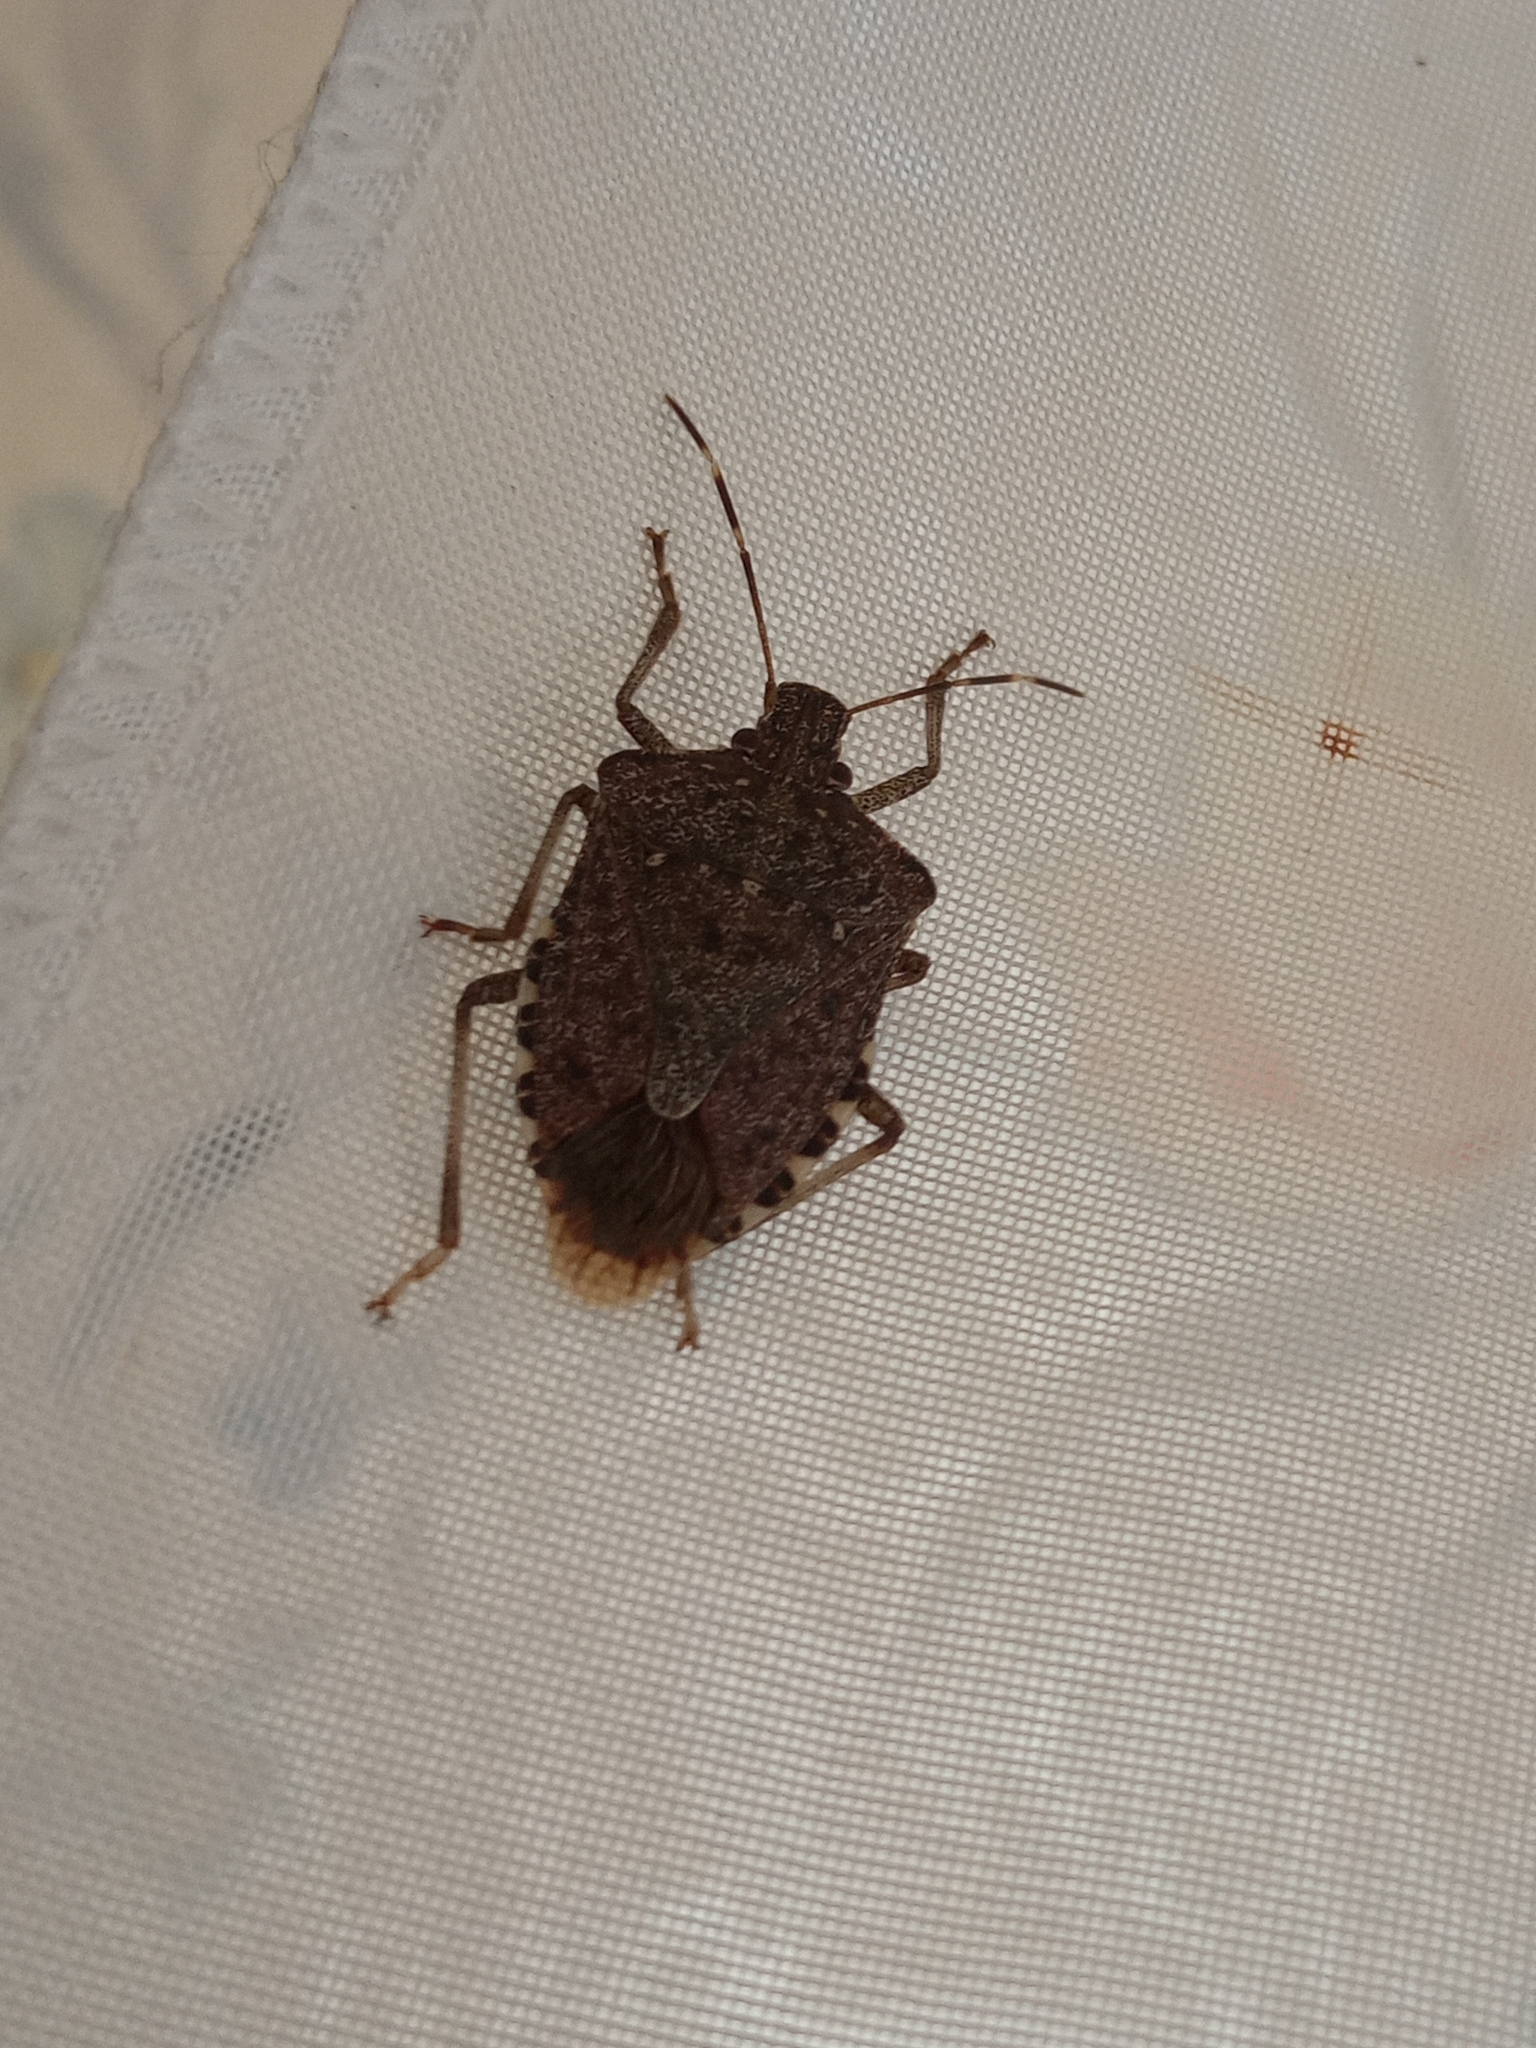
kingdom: Animalia
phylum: Arthropoda
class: Insecta
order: Hemiptera
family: Pentatomidae
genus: Halyomorpha
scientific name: Halyomorpha halys
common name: Brown marmorated stink bug
